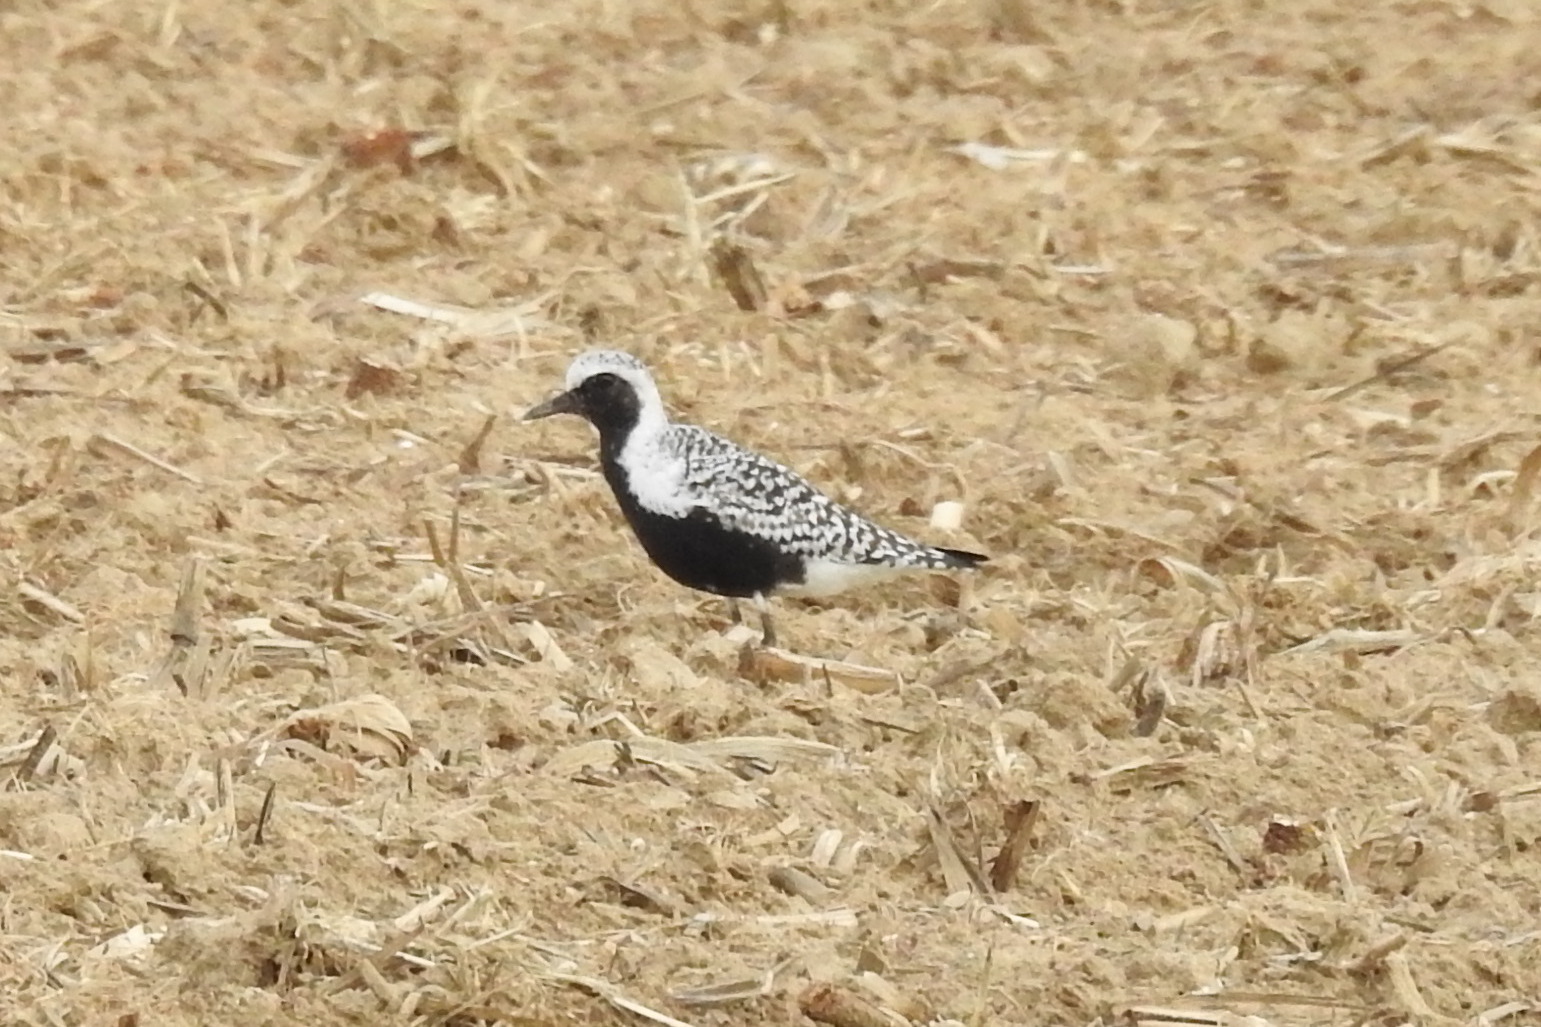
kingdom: Animalia
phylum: Chordata
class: Aves
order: Charadriiformes
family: Charadriidae
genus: Pluvialis
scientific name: Pluvialis squatarola
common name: Grey plover
